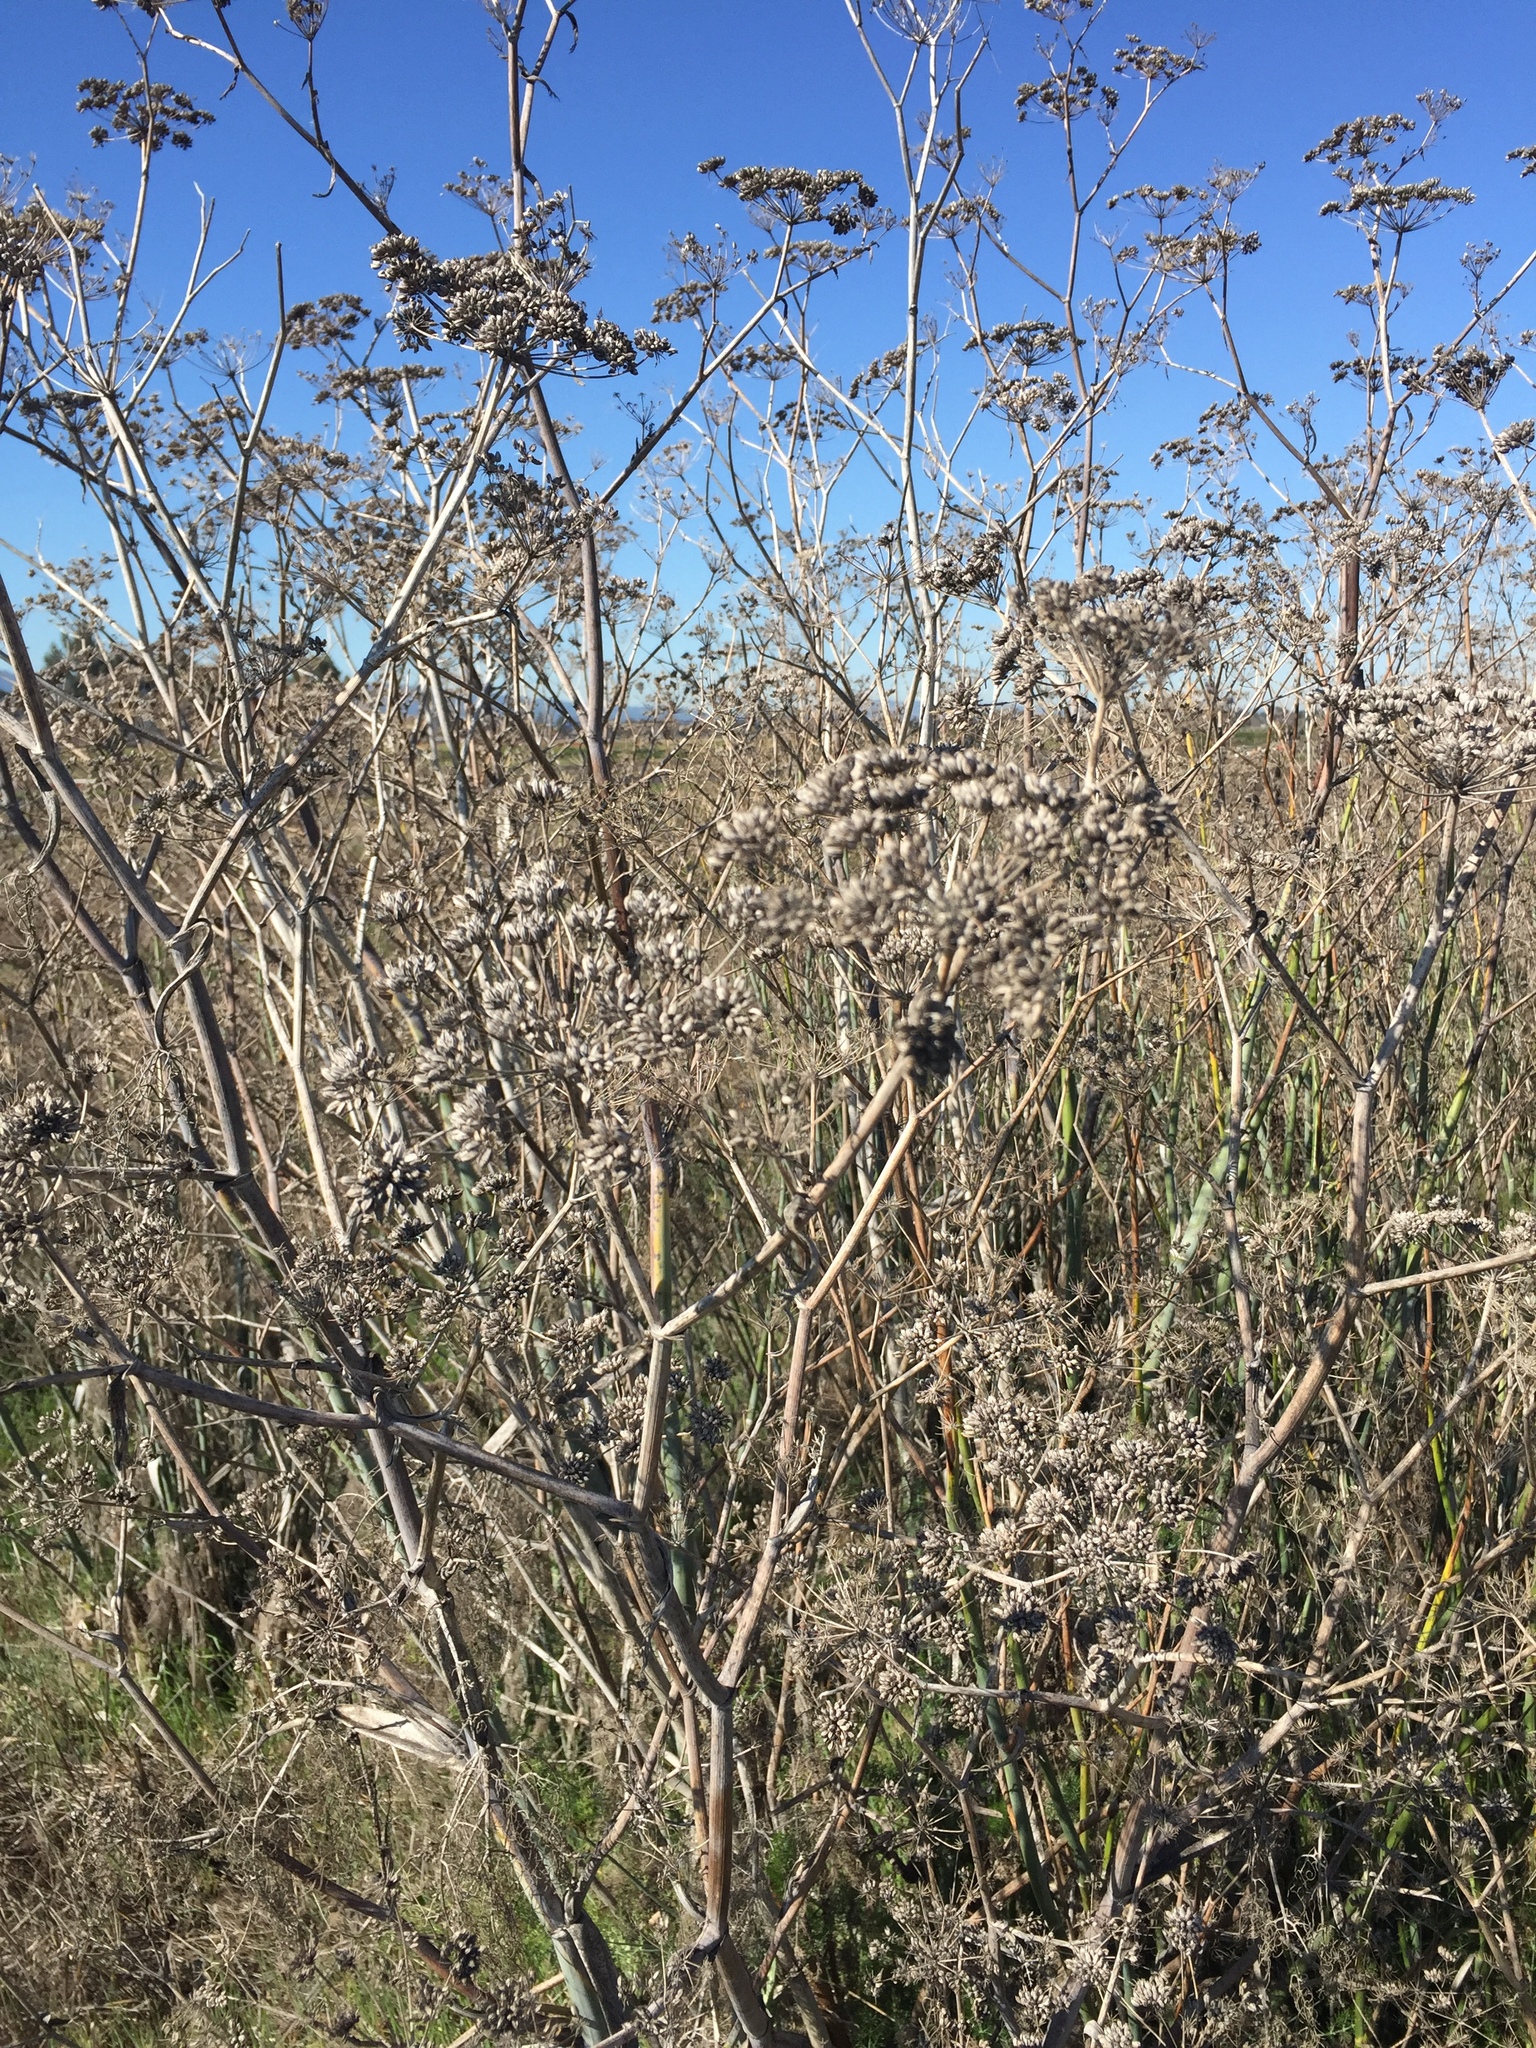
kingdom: Plantae
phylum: Tracheophyta
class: Magnoliopsida
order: Apiales
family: Apiaceae
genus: Foeniculum
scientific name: Foeniculum vulgare
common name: Fennel
